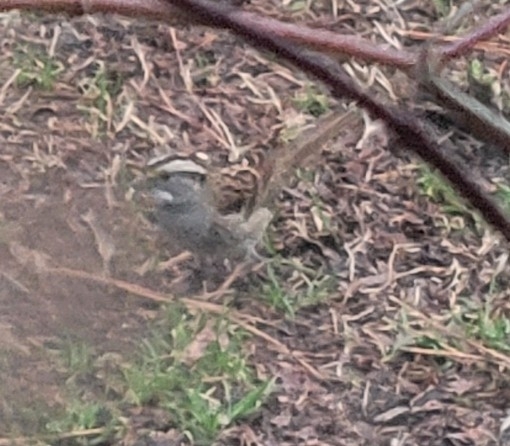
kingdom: Animalia
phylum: Chordata
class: Aves
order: Passeriformes
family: Passerellidae
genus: Zonotrichia
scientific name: Zonotrichia albicollis
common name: White-throated sparrow
